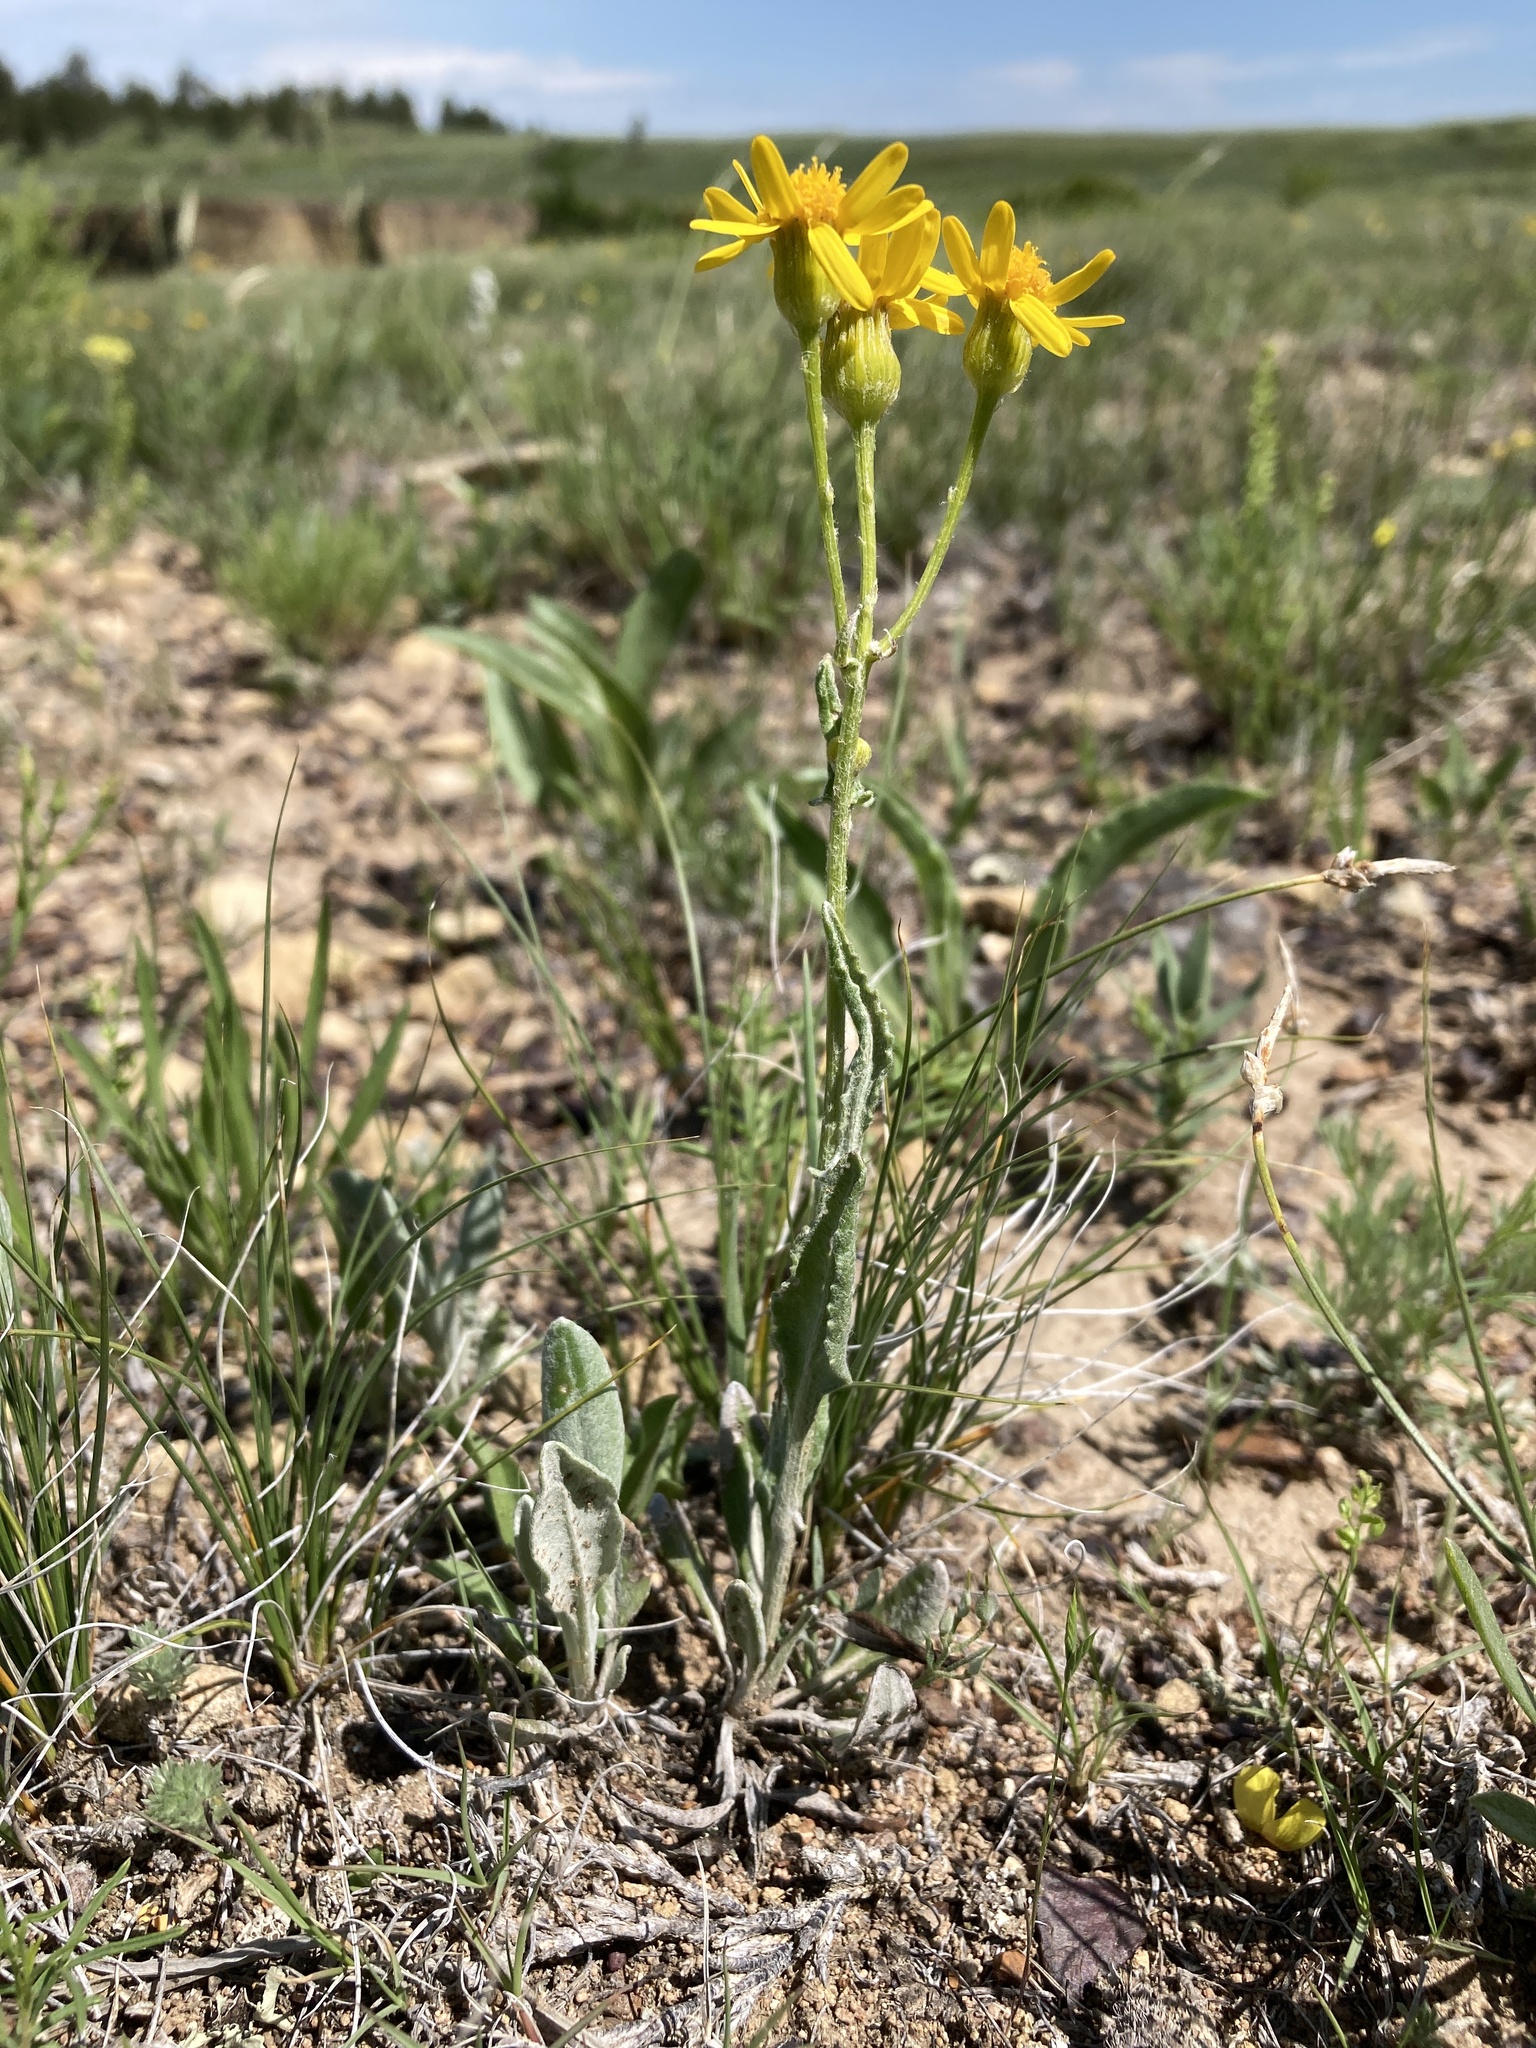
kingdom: Plantae
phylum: Tracheophyta
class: Magnoliopsida
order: Asterales
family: Asteraceae
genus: Packera
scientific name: Packera cana
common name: Woolly groundsel
